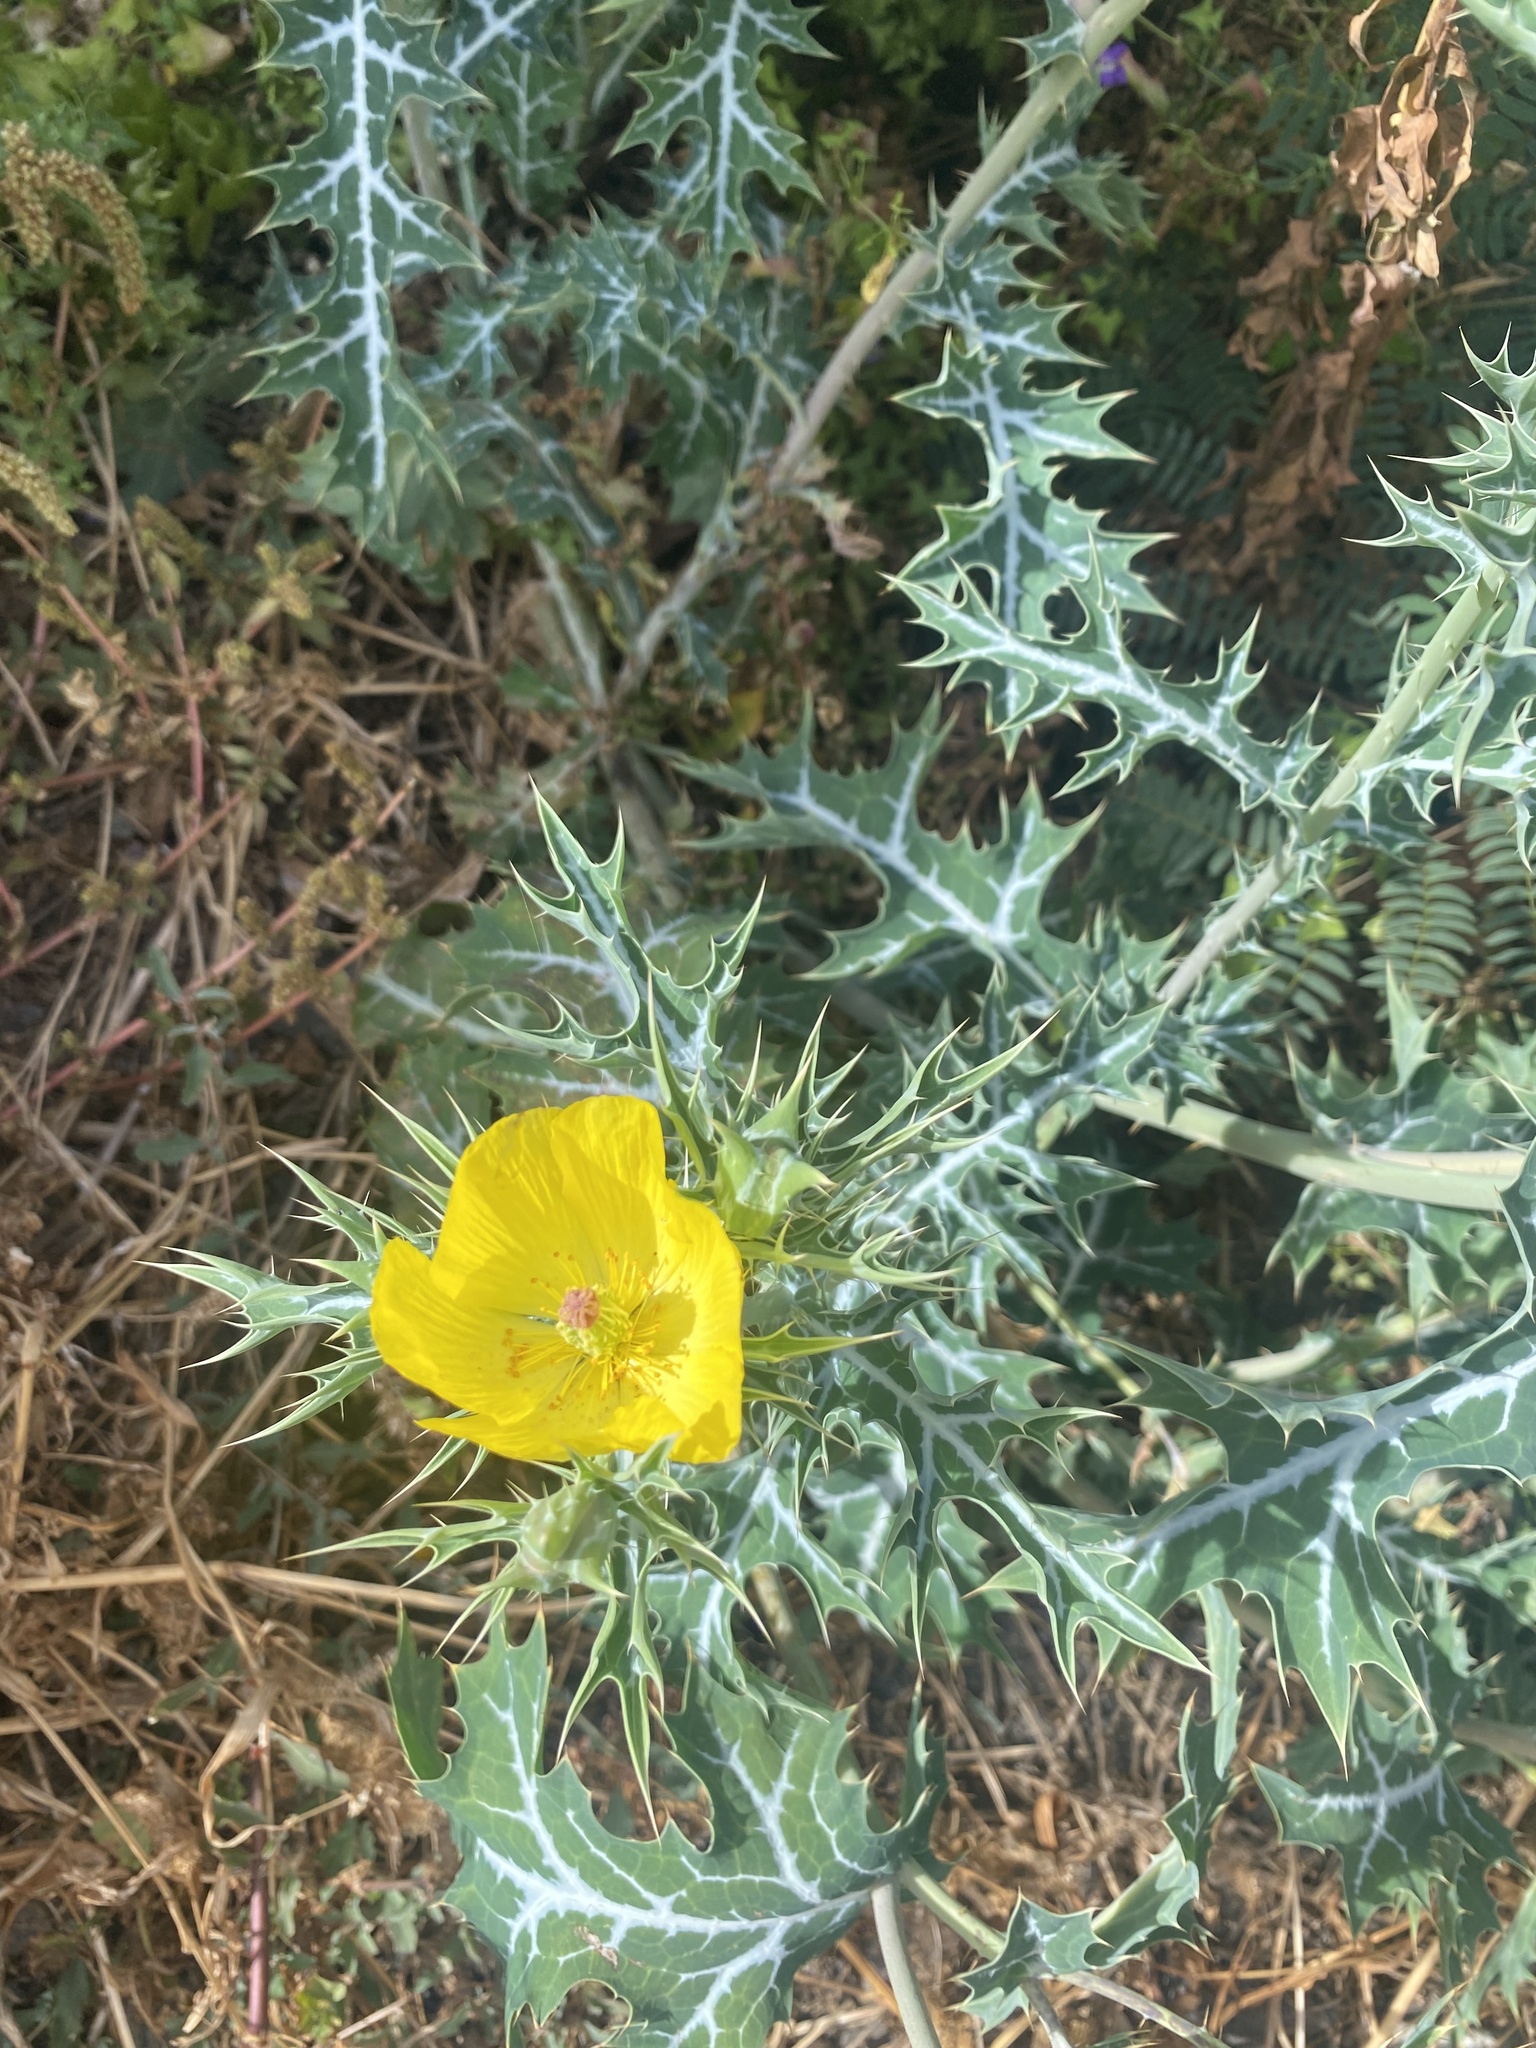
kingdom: Plantae
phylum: Tracheophyta
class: Magnoliopsida
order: Ranunculales
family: Papaveraceae
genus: Argemone
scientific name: Argemone mexicana
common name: Mexican poppy
